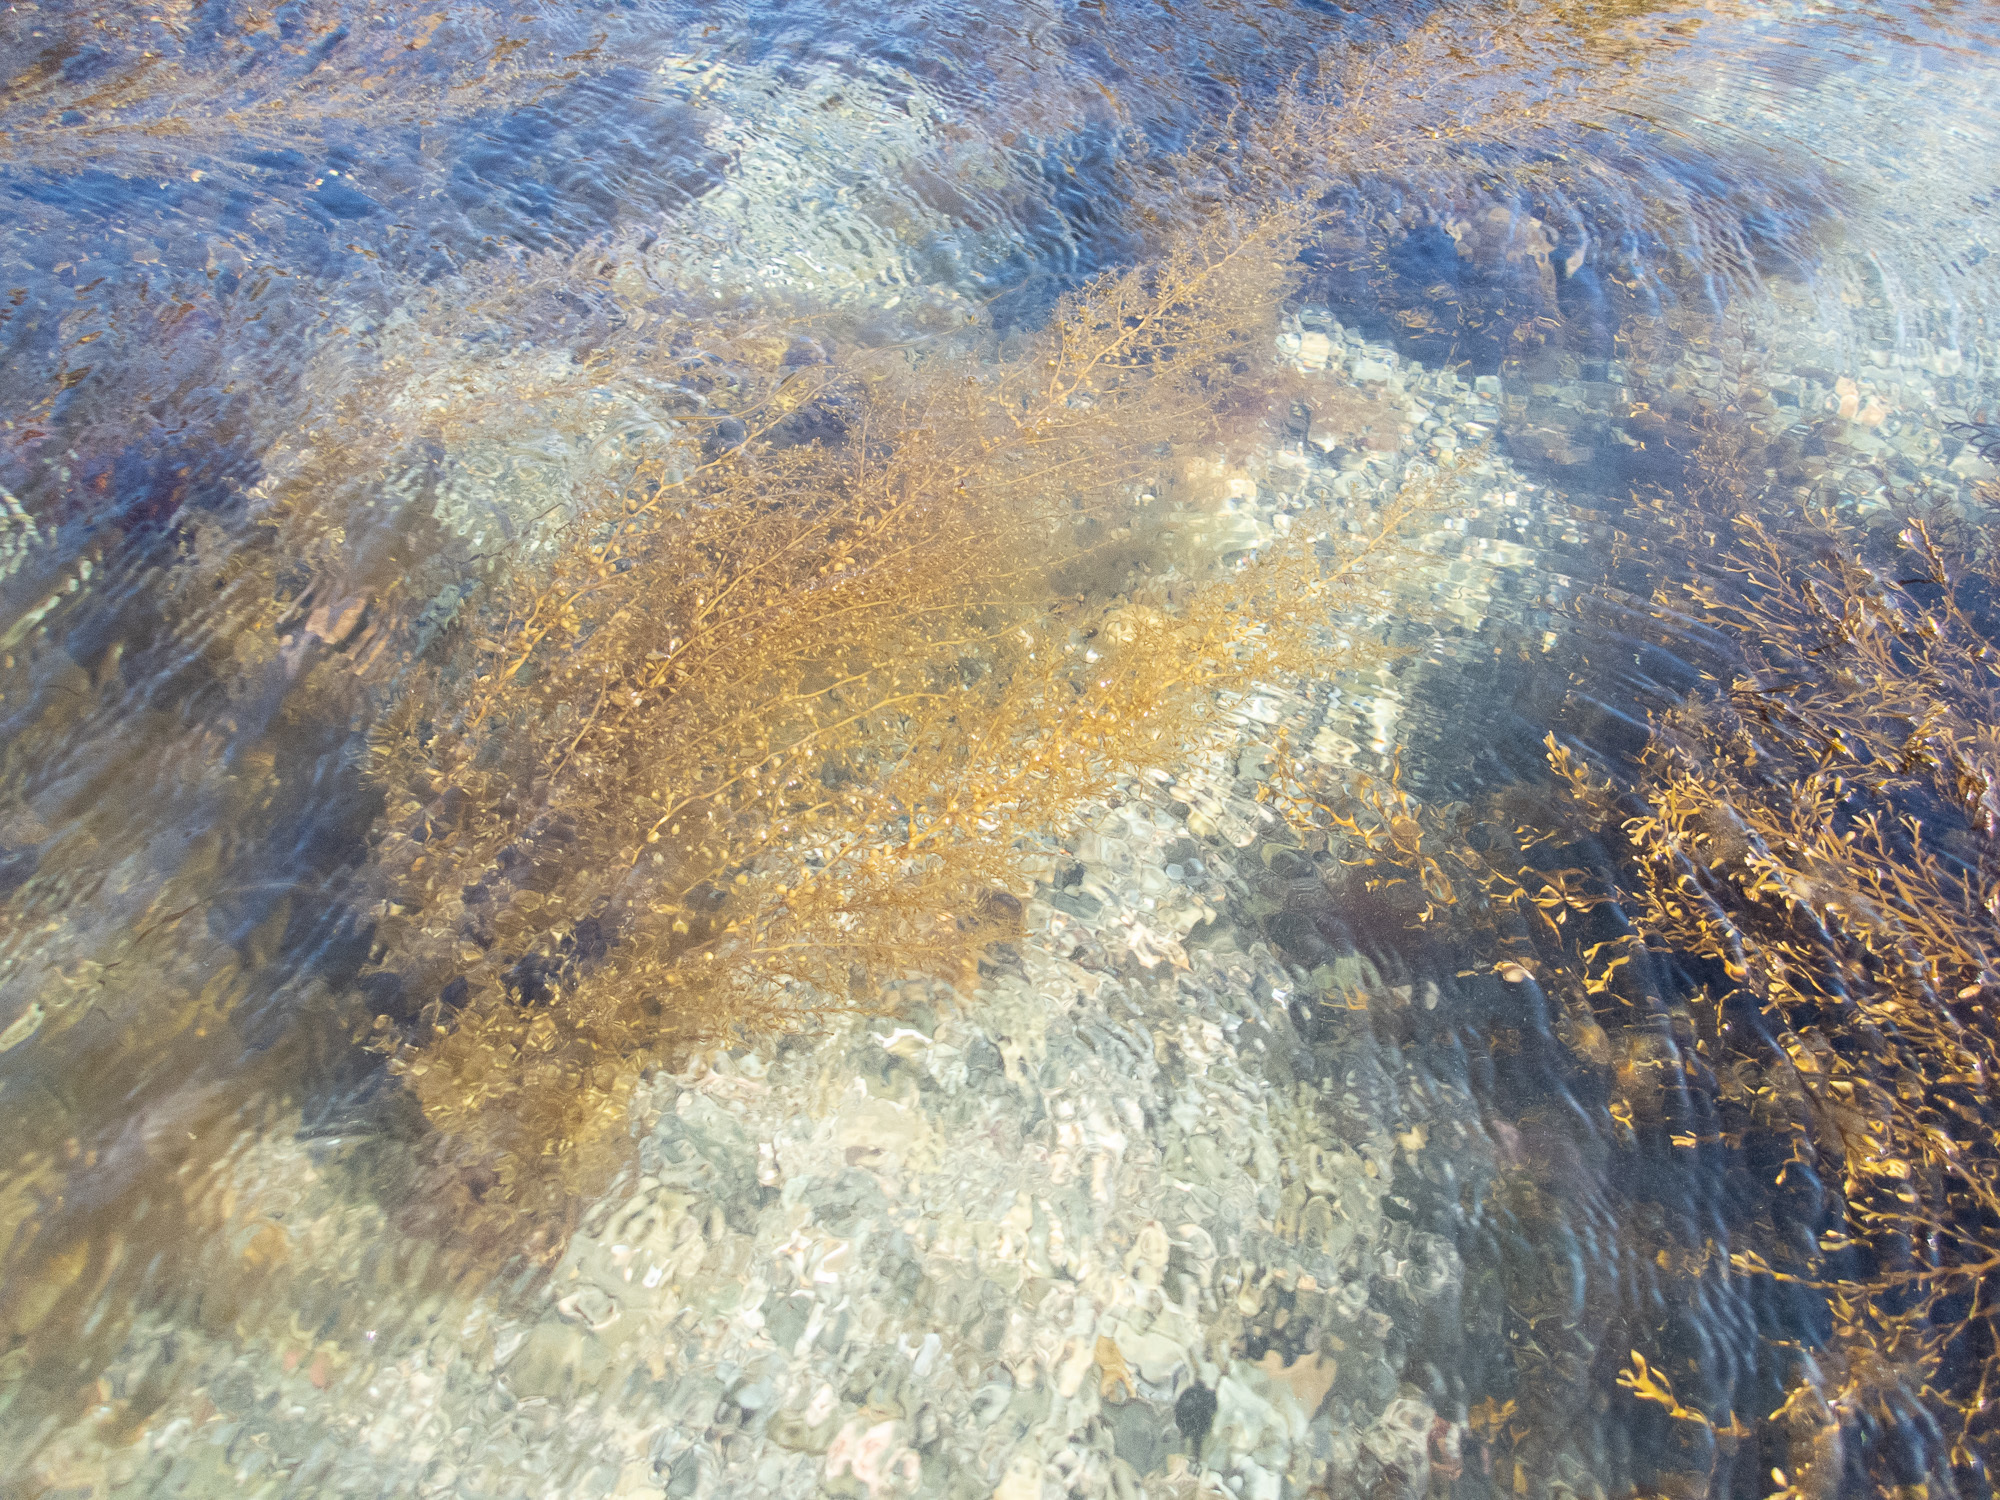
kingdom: Chromista
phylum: Ochrophyta
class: Phaeophyceae
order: Fucales
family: Sargassaceae
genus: Sargassum
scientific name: Sargassum muticum
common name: Japweed
